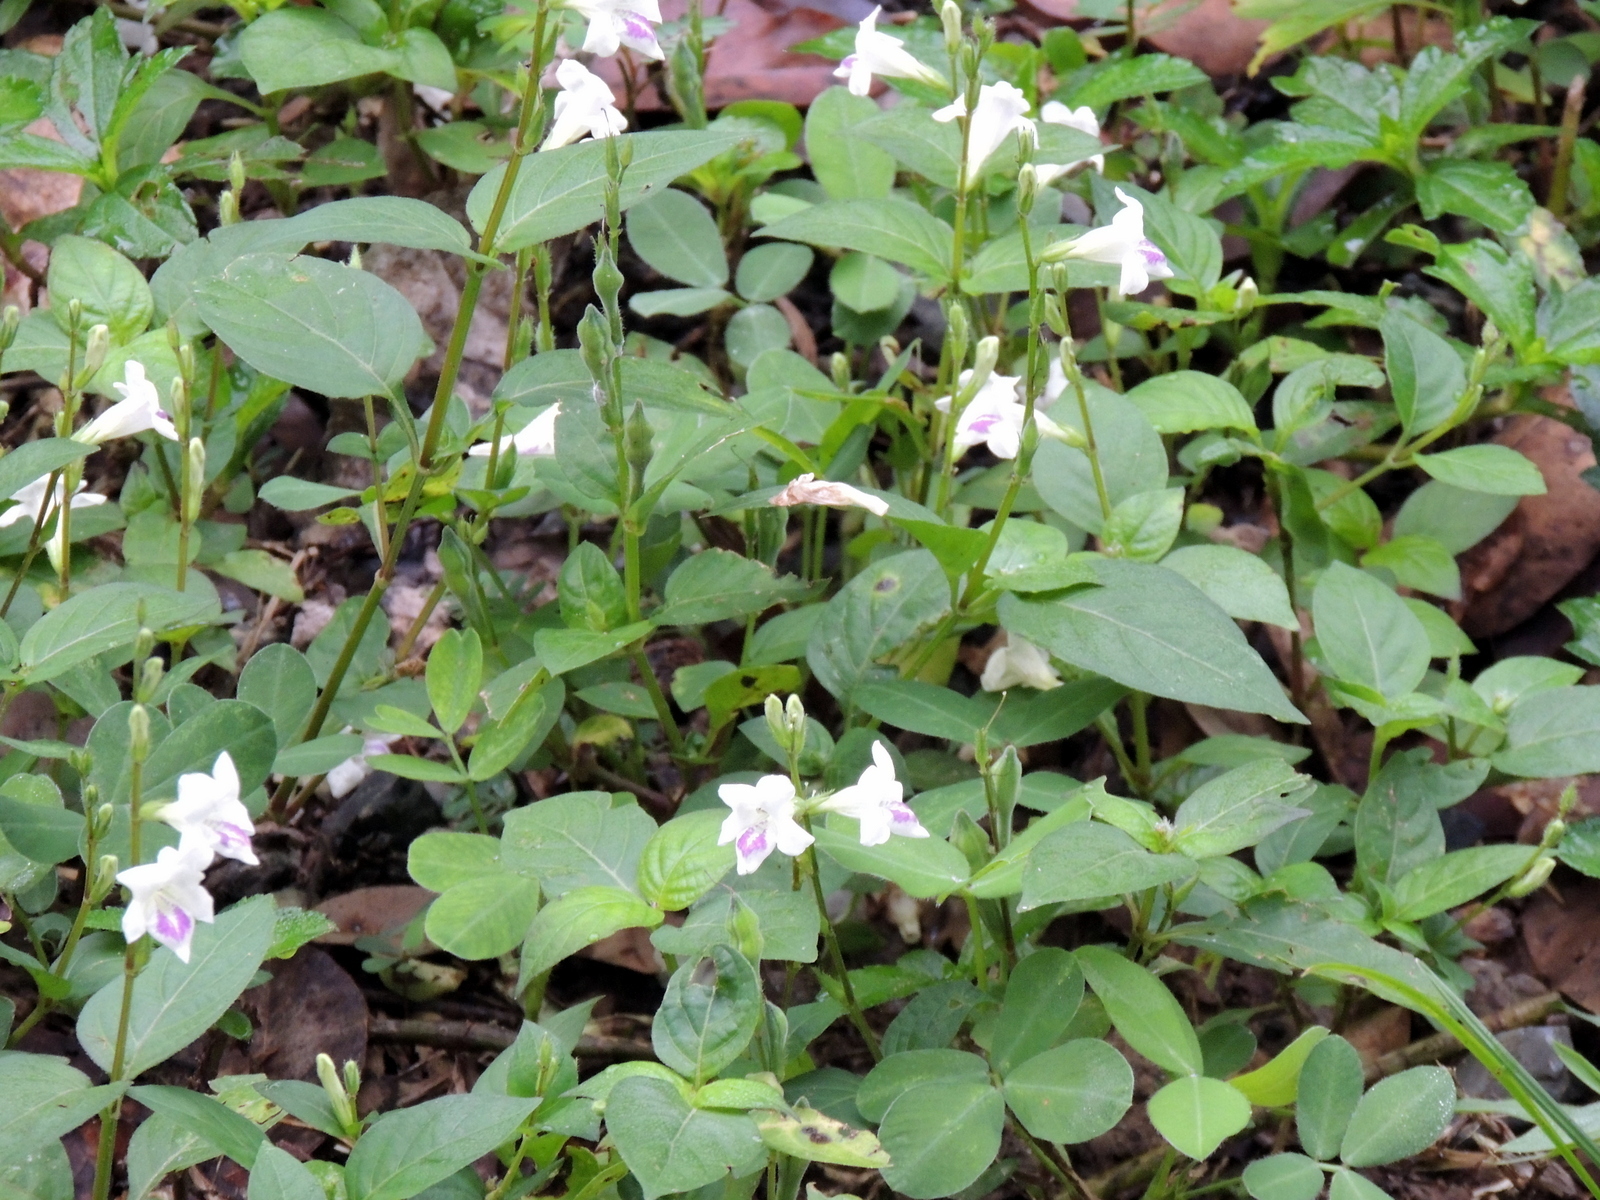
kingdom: Plantae
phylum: Tracheophyta
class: Magnoliopsida
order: Lamiales
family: Acanthaceae
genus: Asystasia
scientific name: Asystasia intrusa
